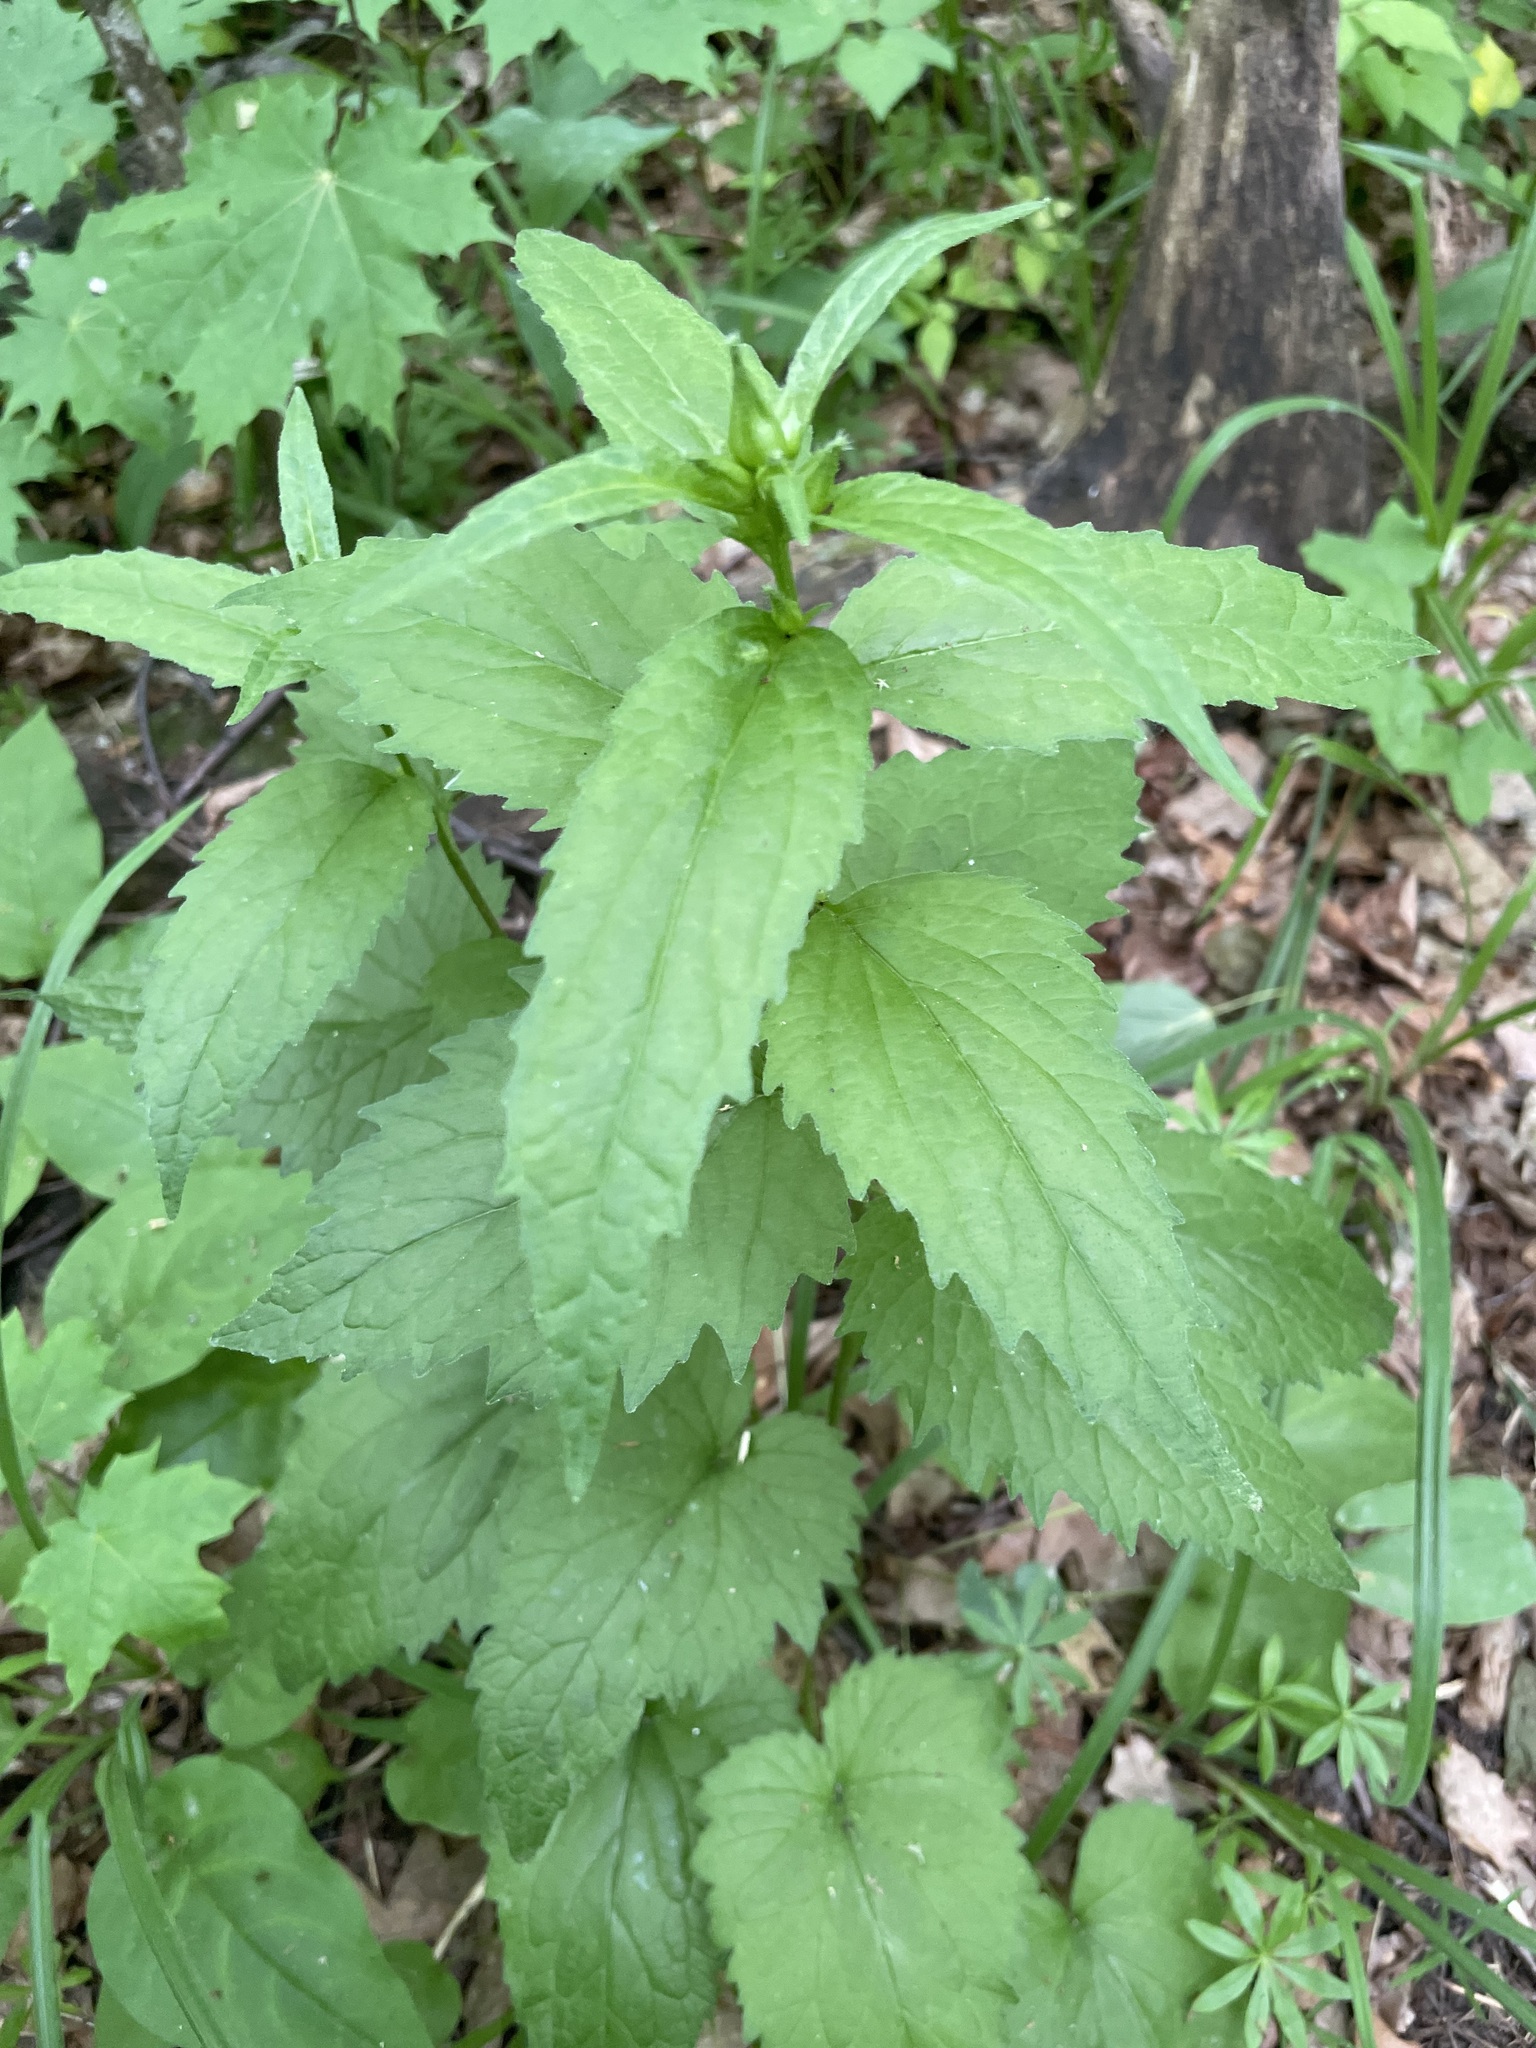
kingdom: Plantae
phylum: Tracheophyta
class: Magnoliopsida
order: Asterales
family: Campanulaceae
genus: Campanula
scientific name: Campanula trachelium
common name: Nettle-leaved bellflower
